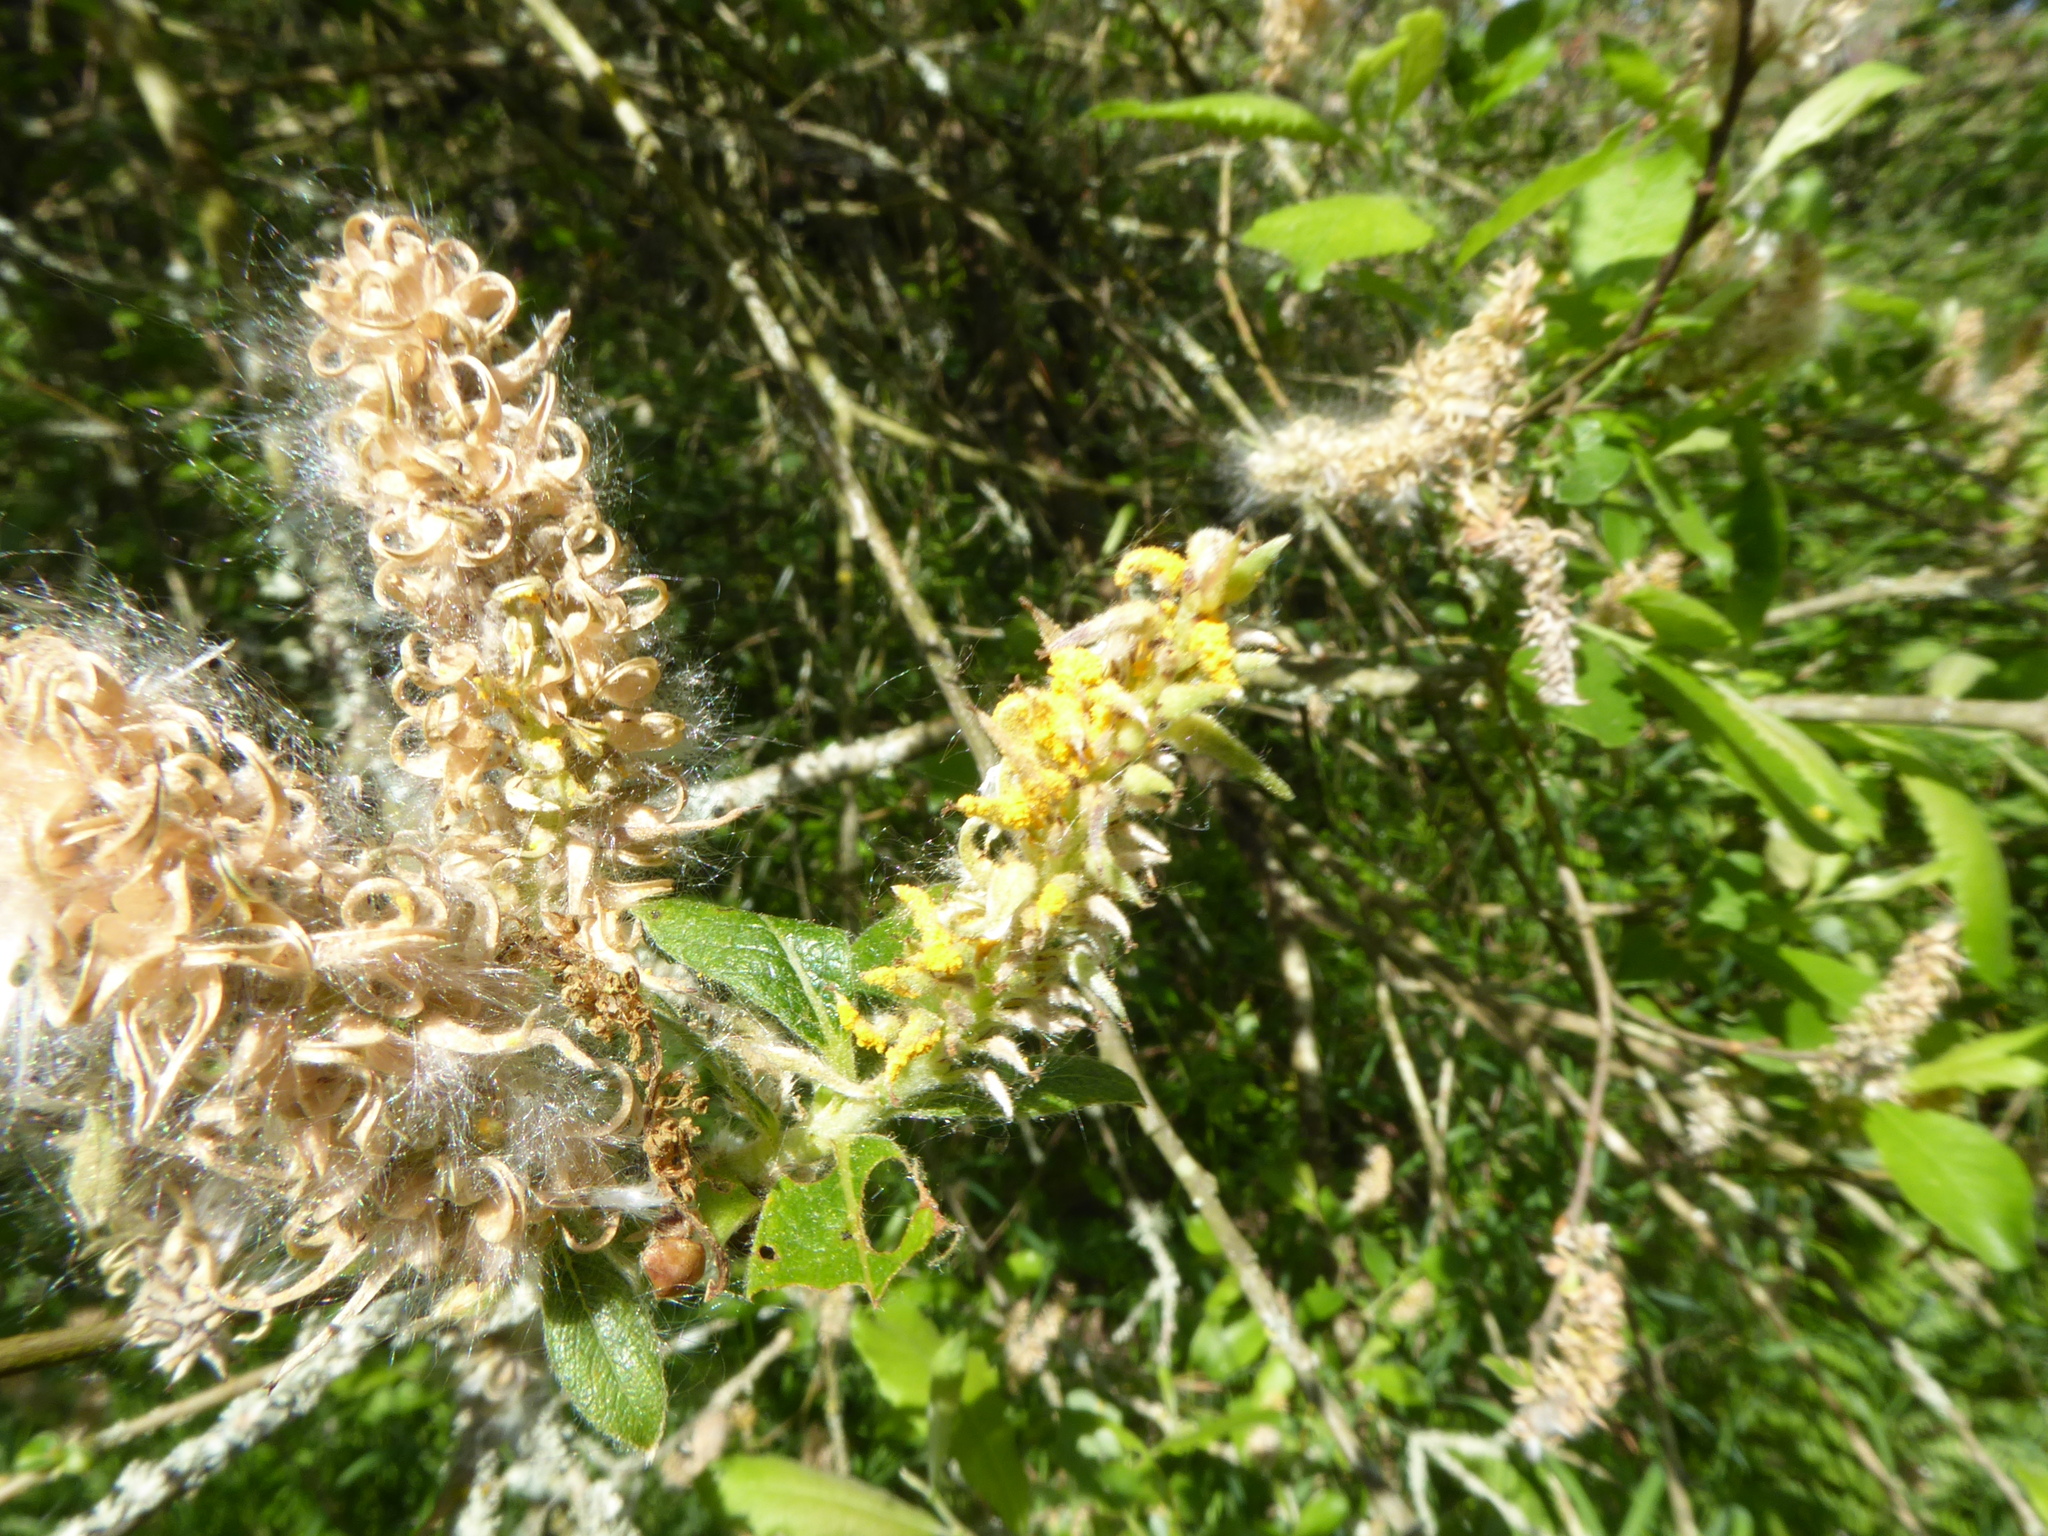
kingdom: Fungi
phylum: Basidiomycota
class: Pucciniomycetes
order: Pucciniales
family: Melampsoraceae
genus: Melampsora
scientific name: Melampsora
